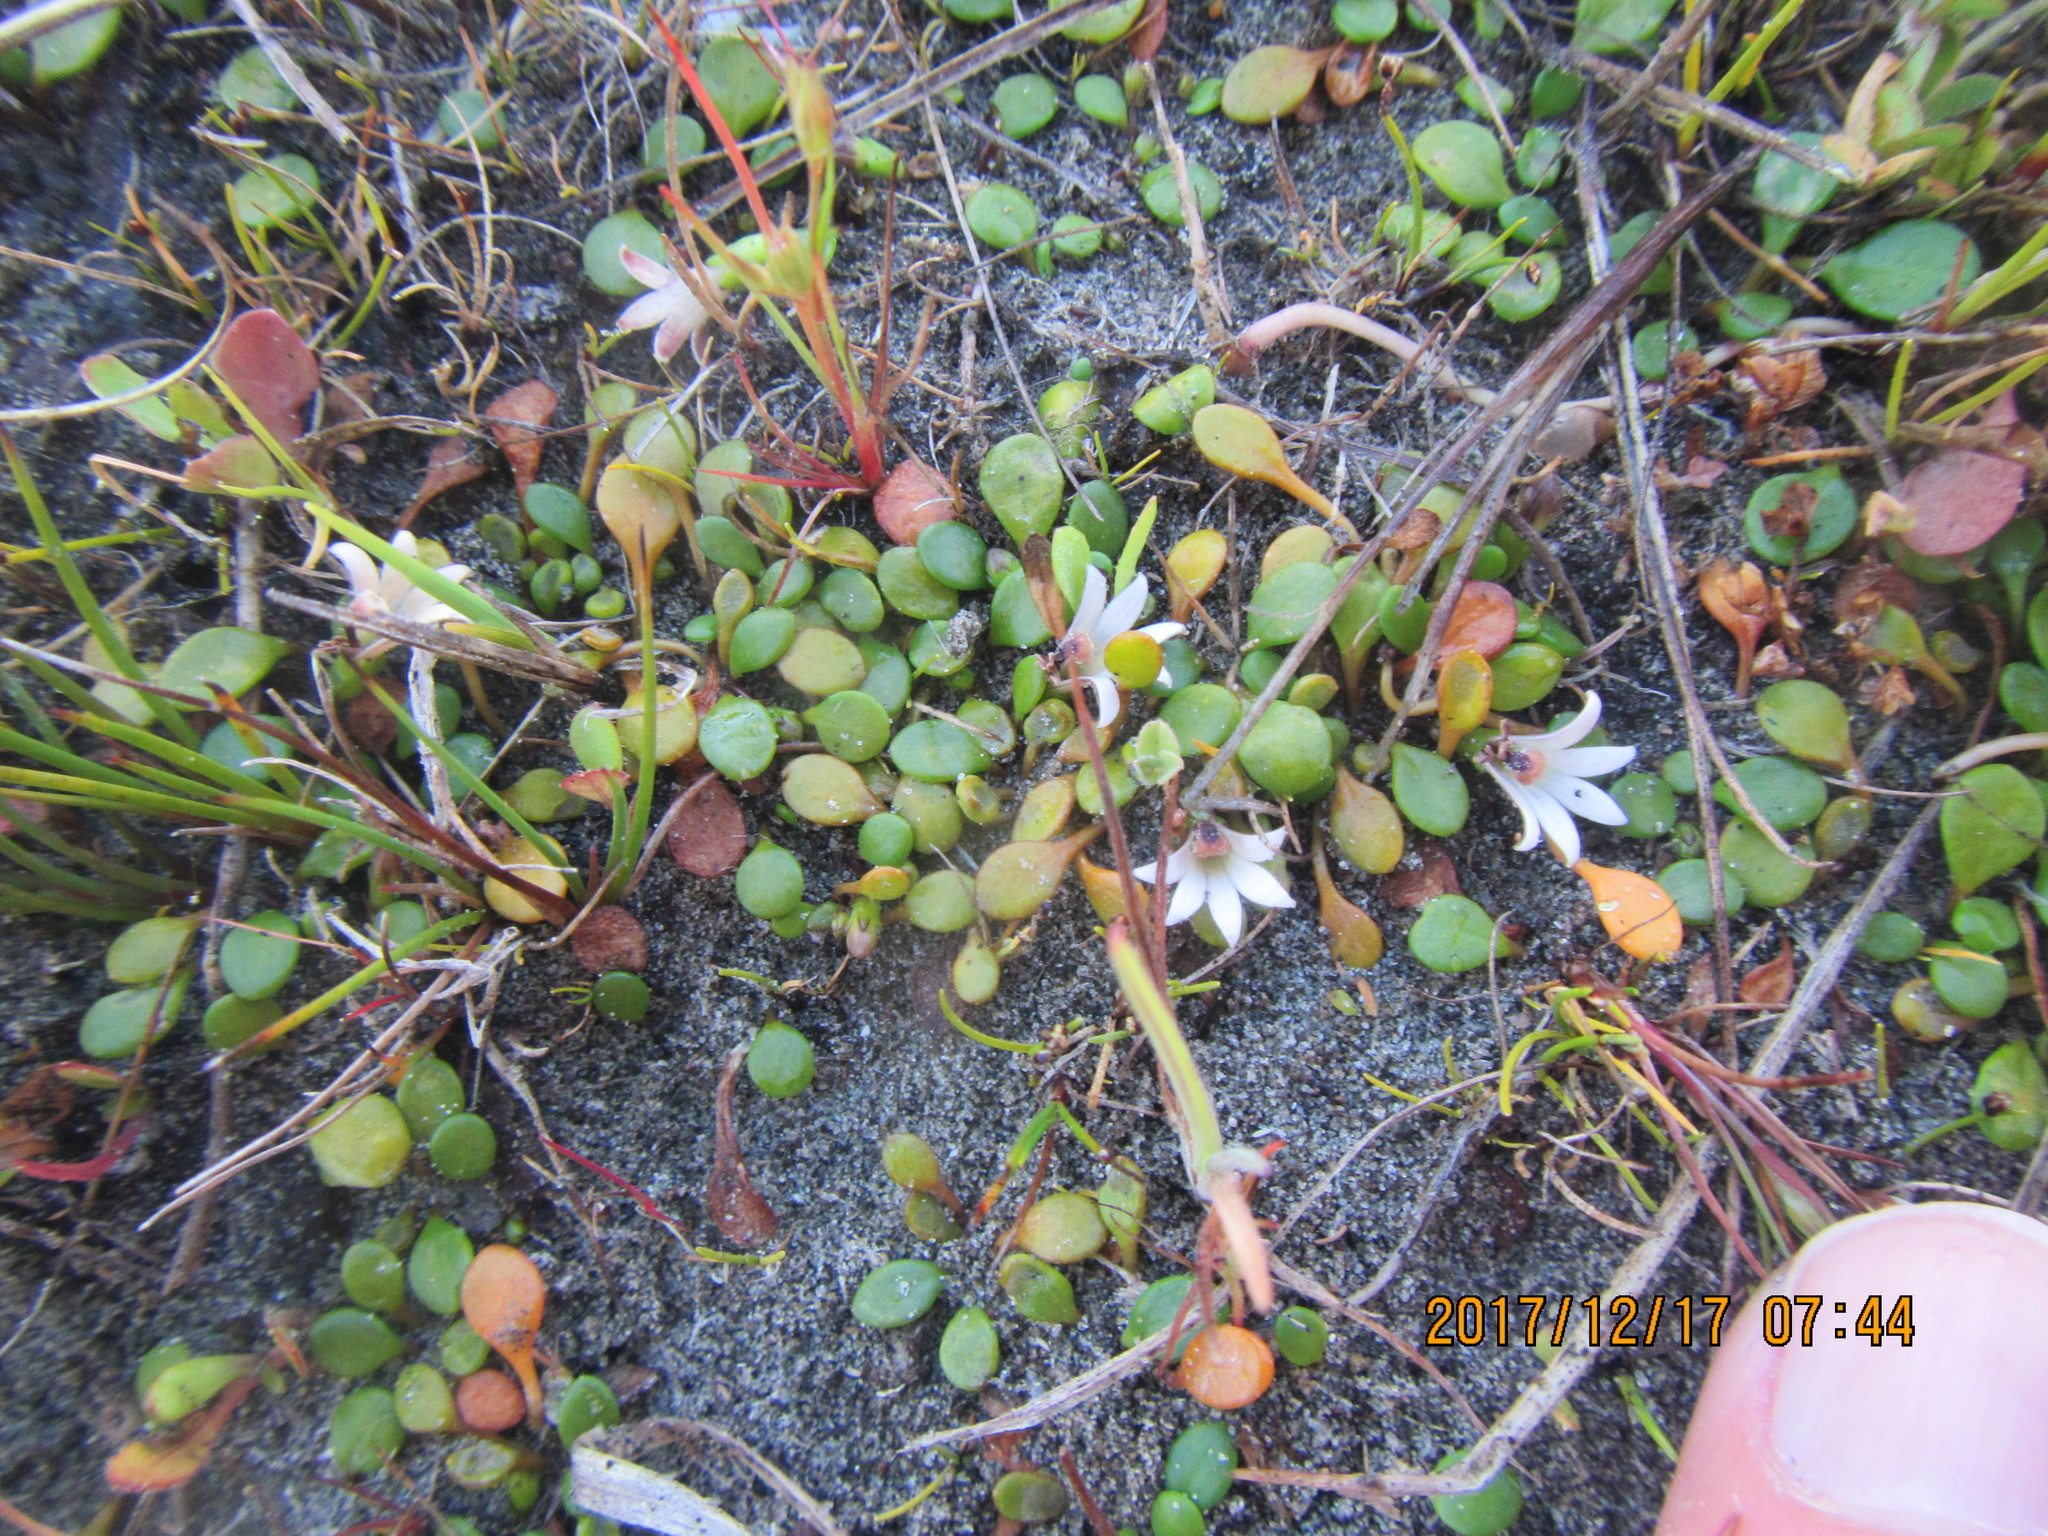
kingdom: Plantae
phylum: Tracheophyta
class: Magnoliopsida
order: Asterales
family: Goodeniaceae
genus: Goodenia
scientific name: Goodenia heenanii
